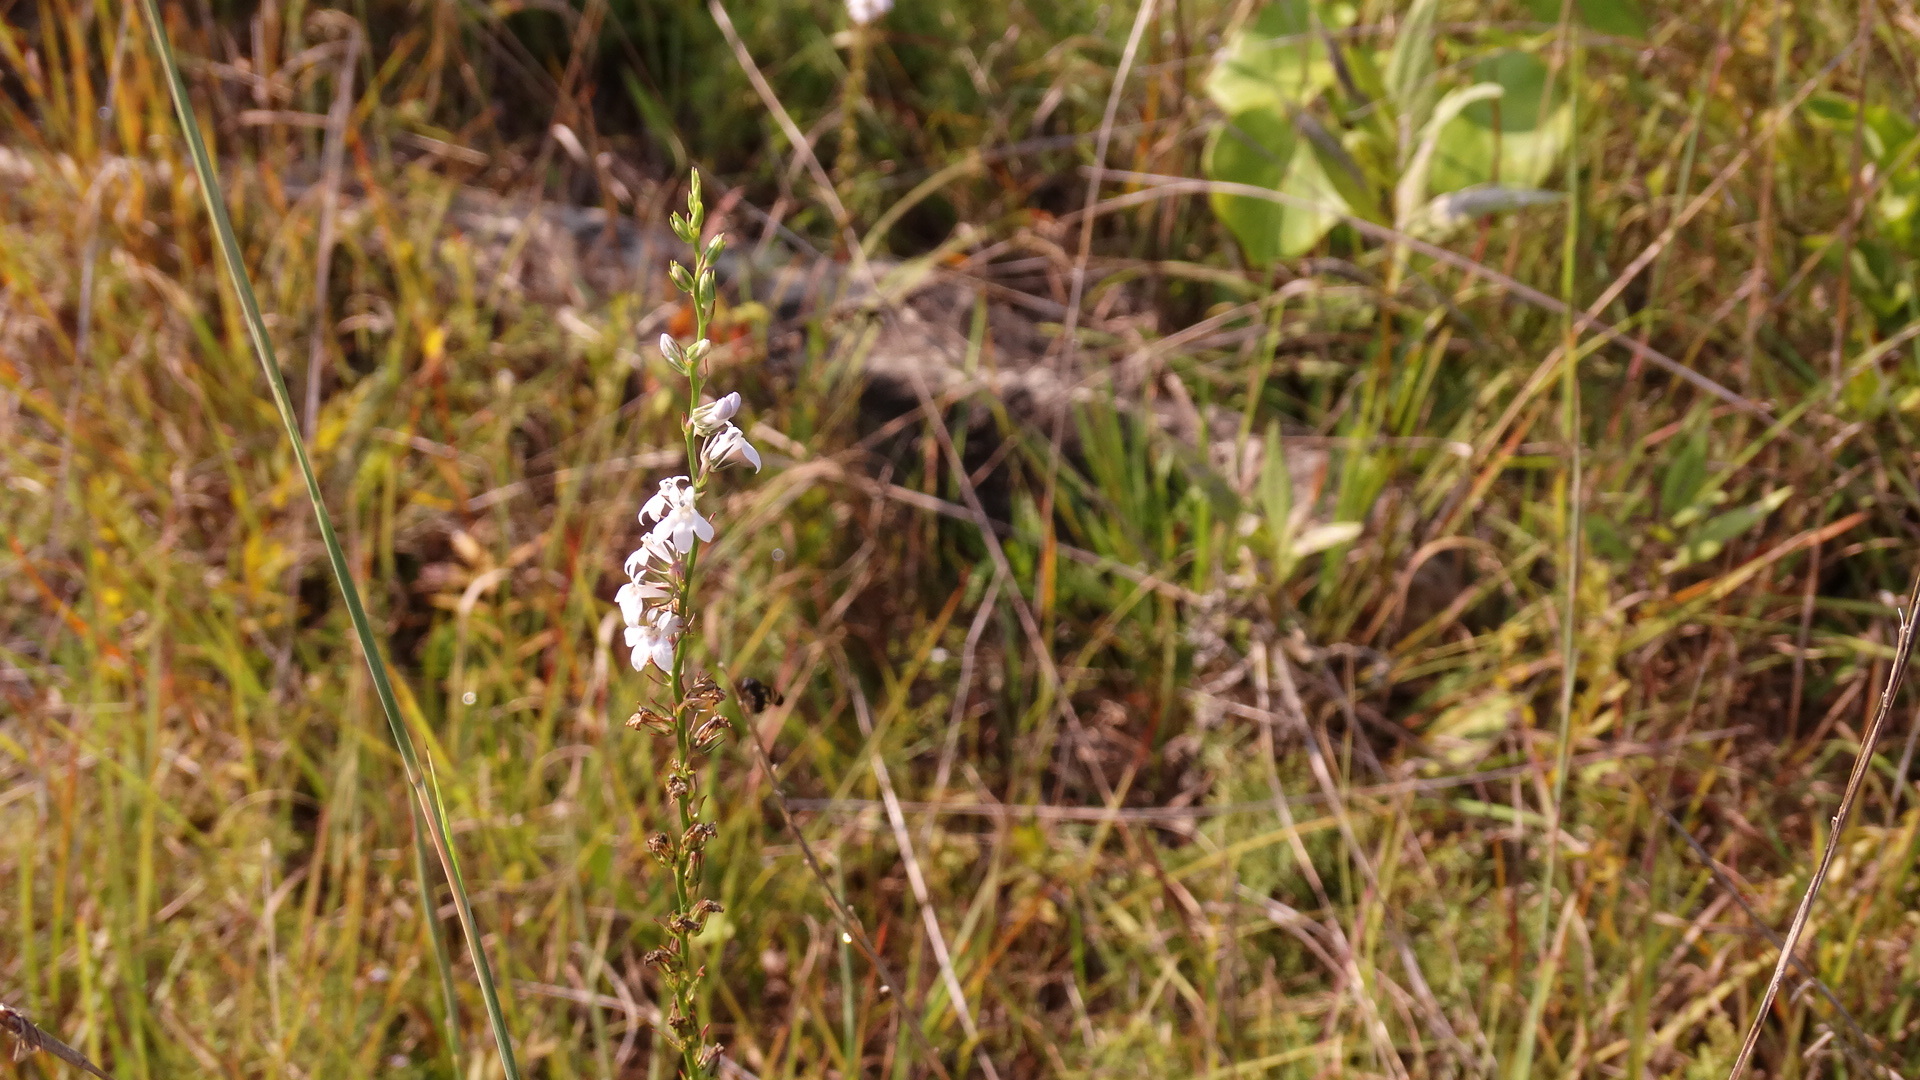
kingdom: Plantae
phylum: Tracheophyta
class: Magnoliopsida
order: Asterales
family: Campanulaceae
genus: Lobelia
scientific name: Lobelia spicata
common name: Pale-spike lobelia
